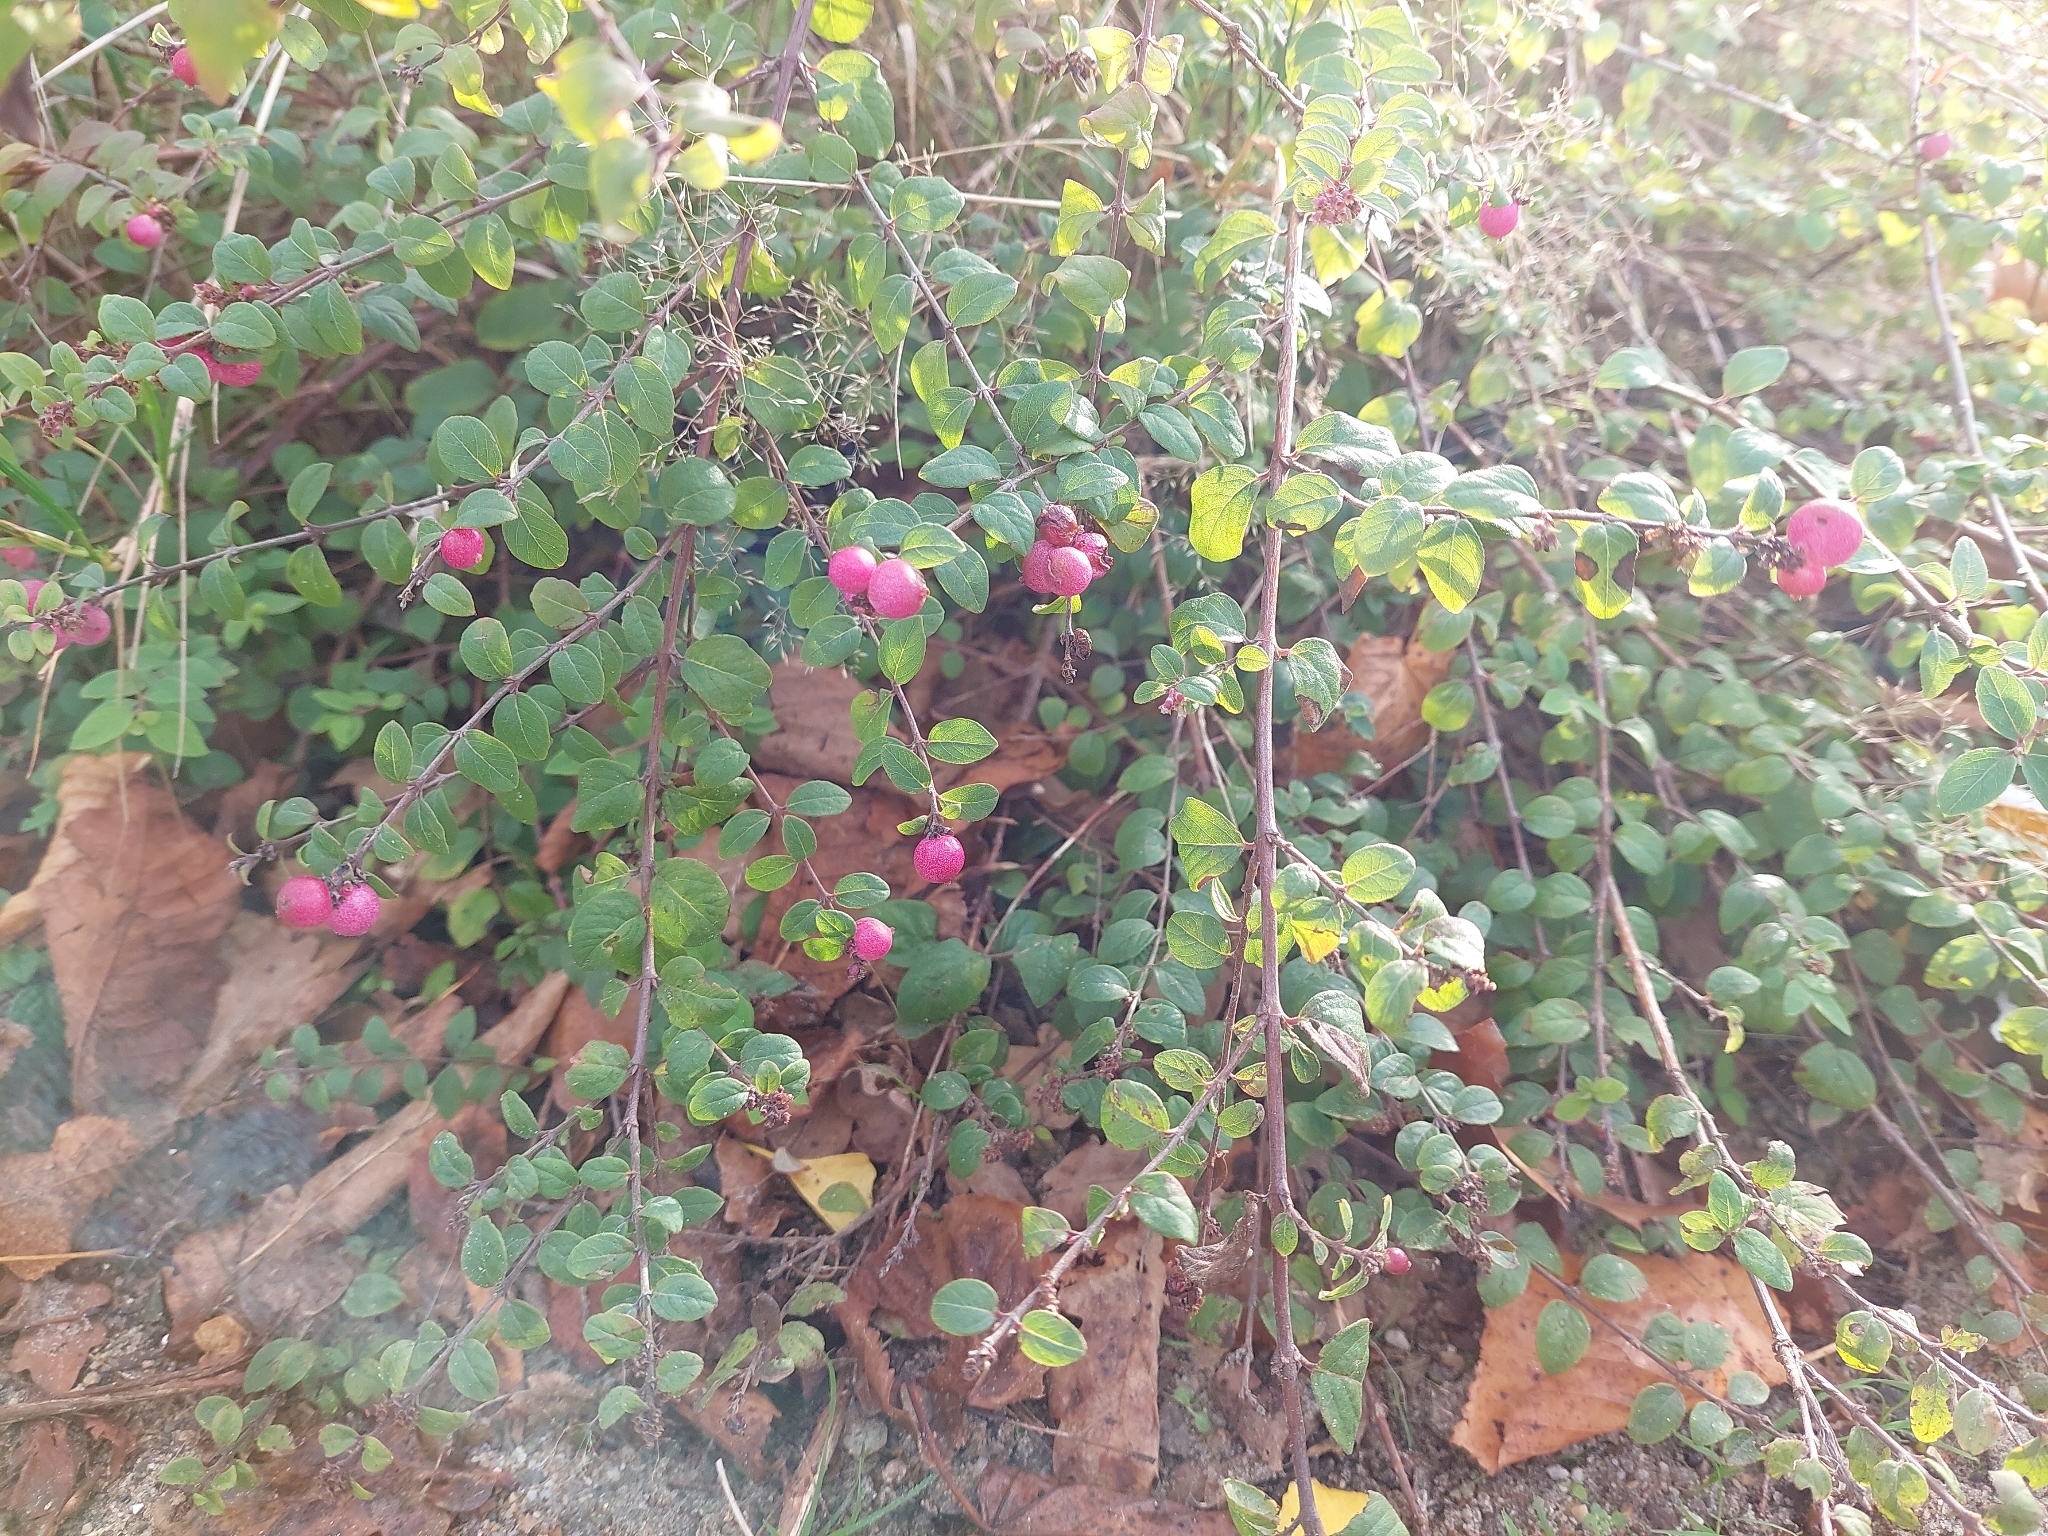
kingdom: Plantae
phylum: Tracheophyta
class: Magnoliopsida
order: Dipsacales
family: Caprifoliaceae
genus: Symphoricarpos
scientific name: Symphoricarpos orbiculatus
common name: Coralberry
